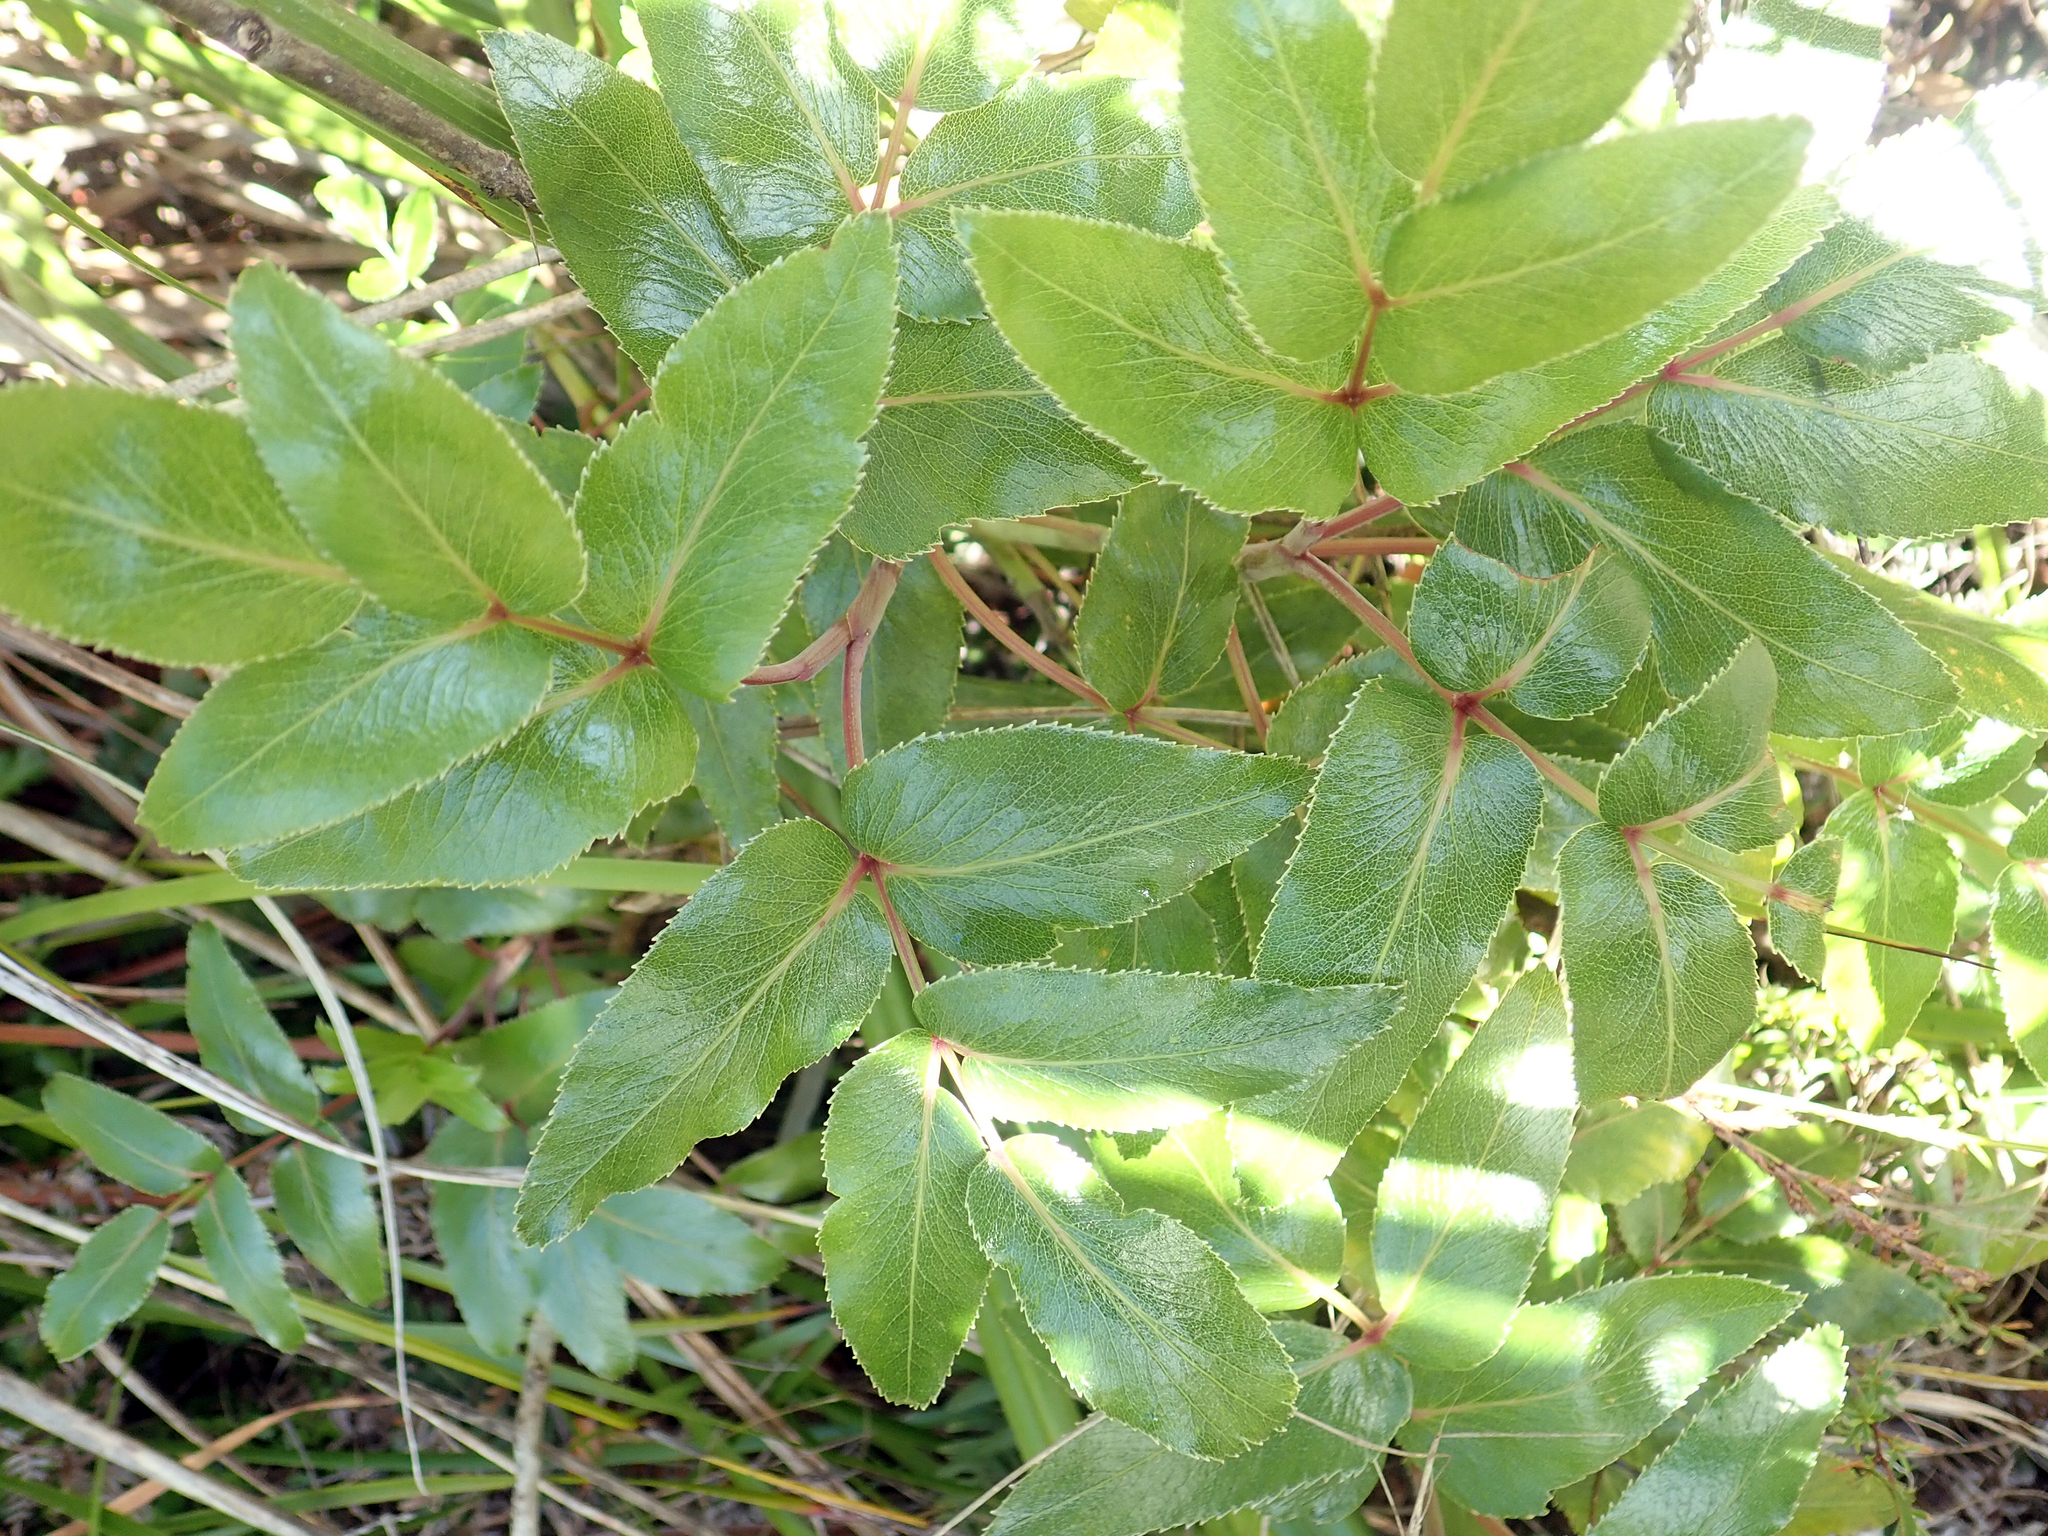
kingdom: Plantae
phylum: Tracheophyta
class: Magnoliopsida
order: Apiales
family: Apiaceae
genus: Scandia
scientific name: Scandia rosifolia
